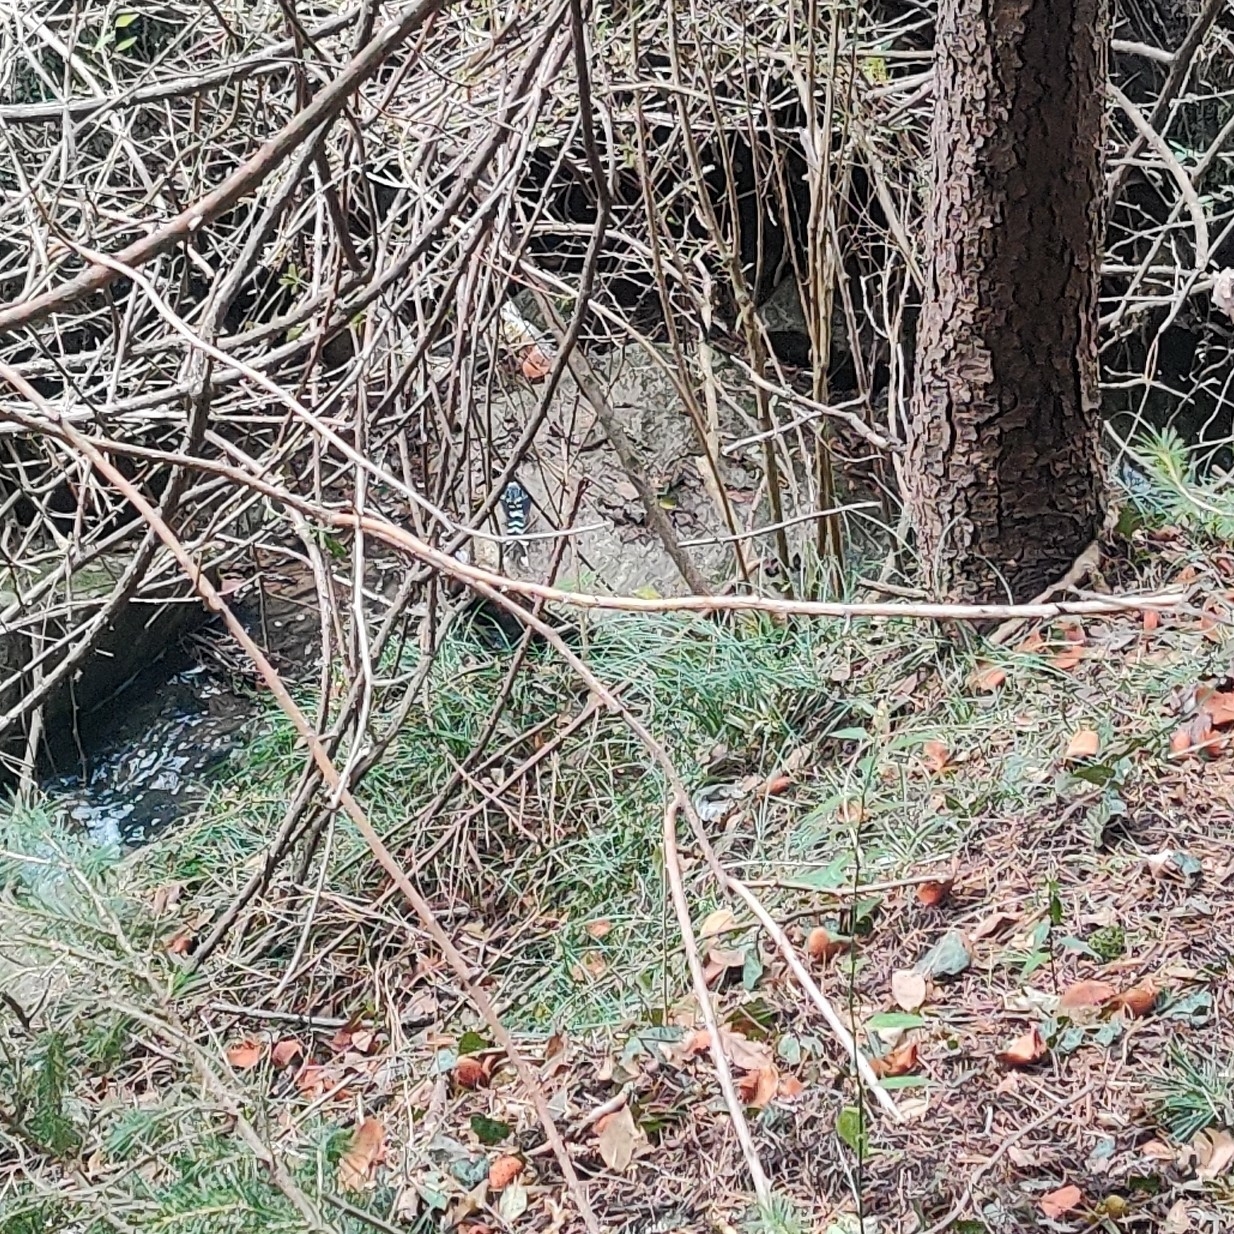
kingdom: Animalia
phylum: Chordata
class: Aves
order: Passeriformes
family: Muscicapidae
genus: Enicurus
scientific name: Enicurus maculatus
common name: Spotted forktail
